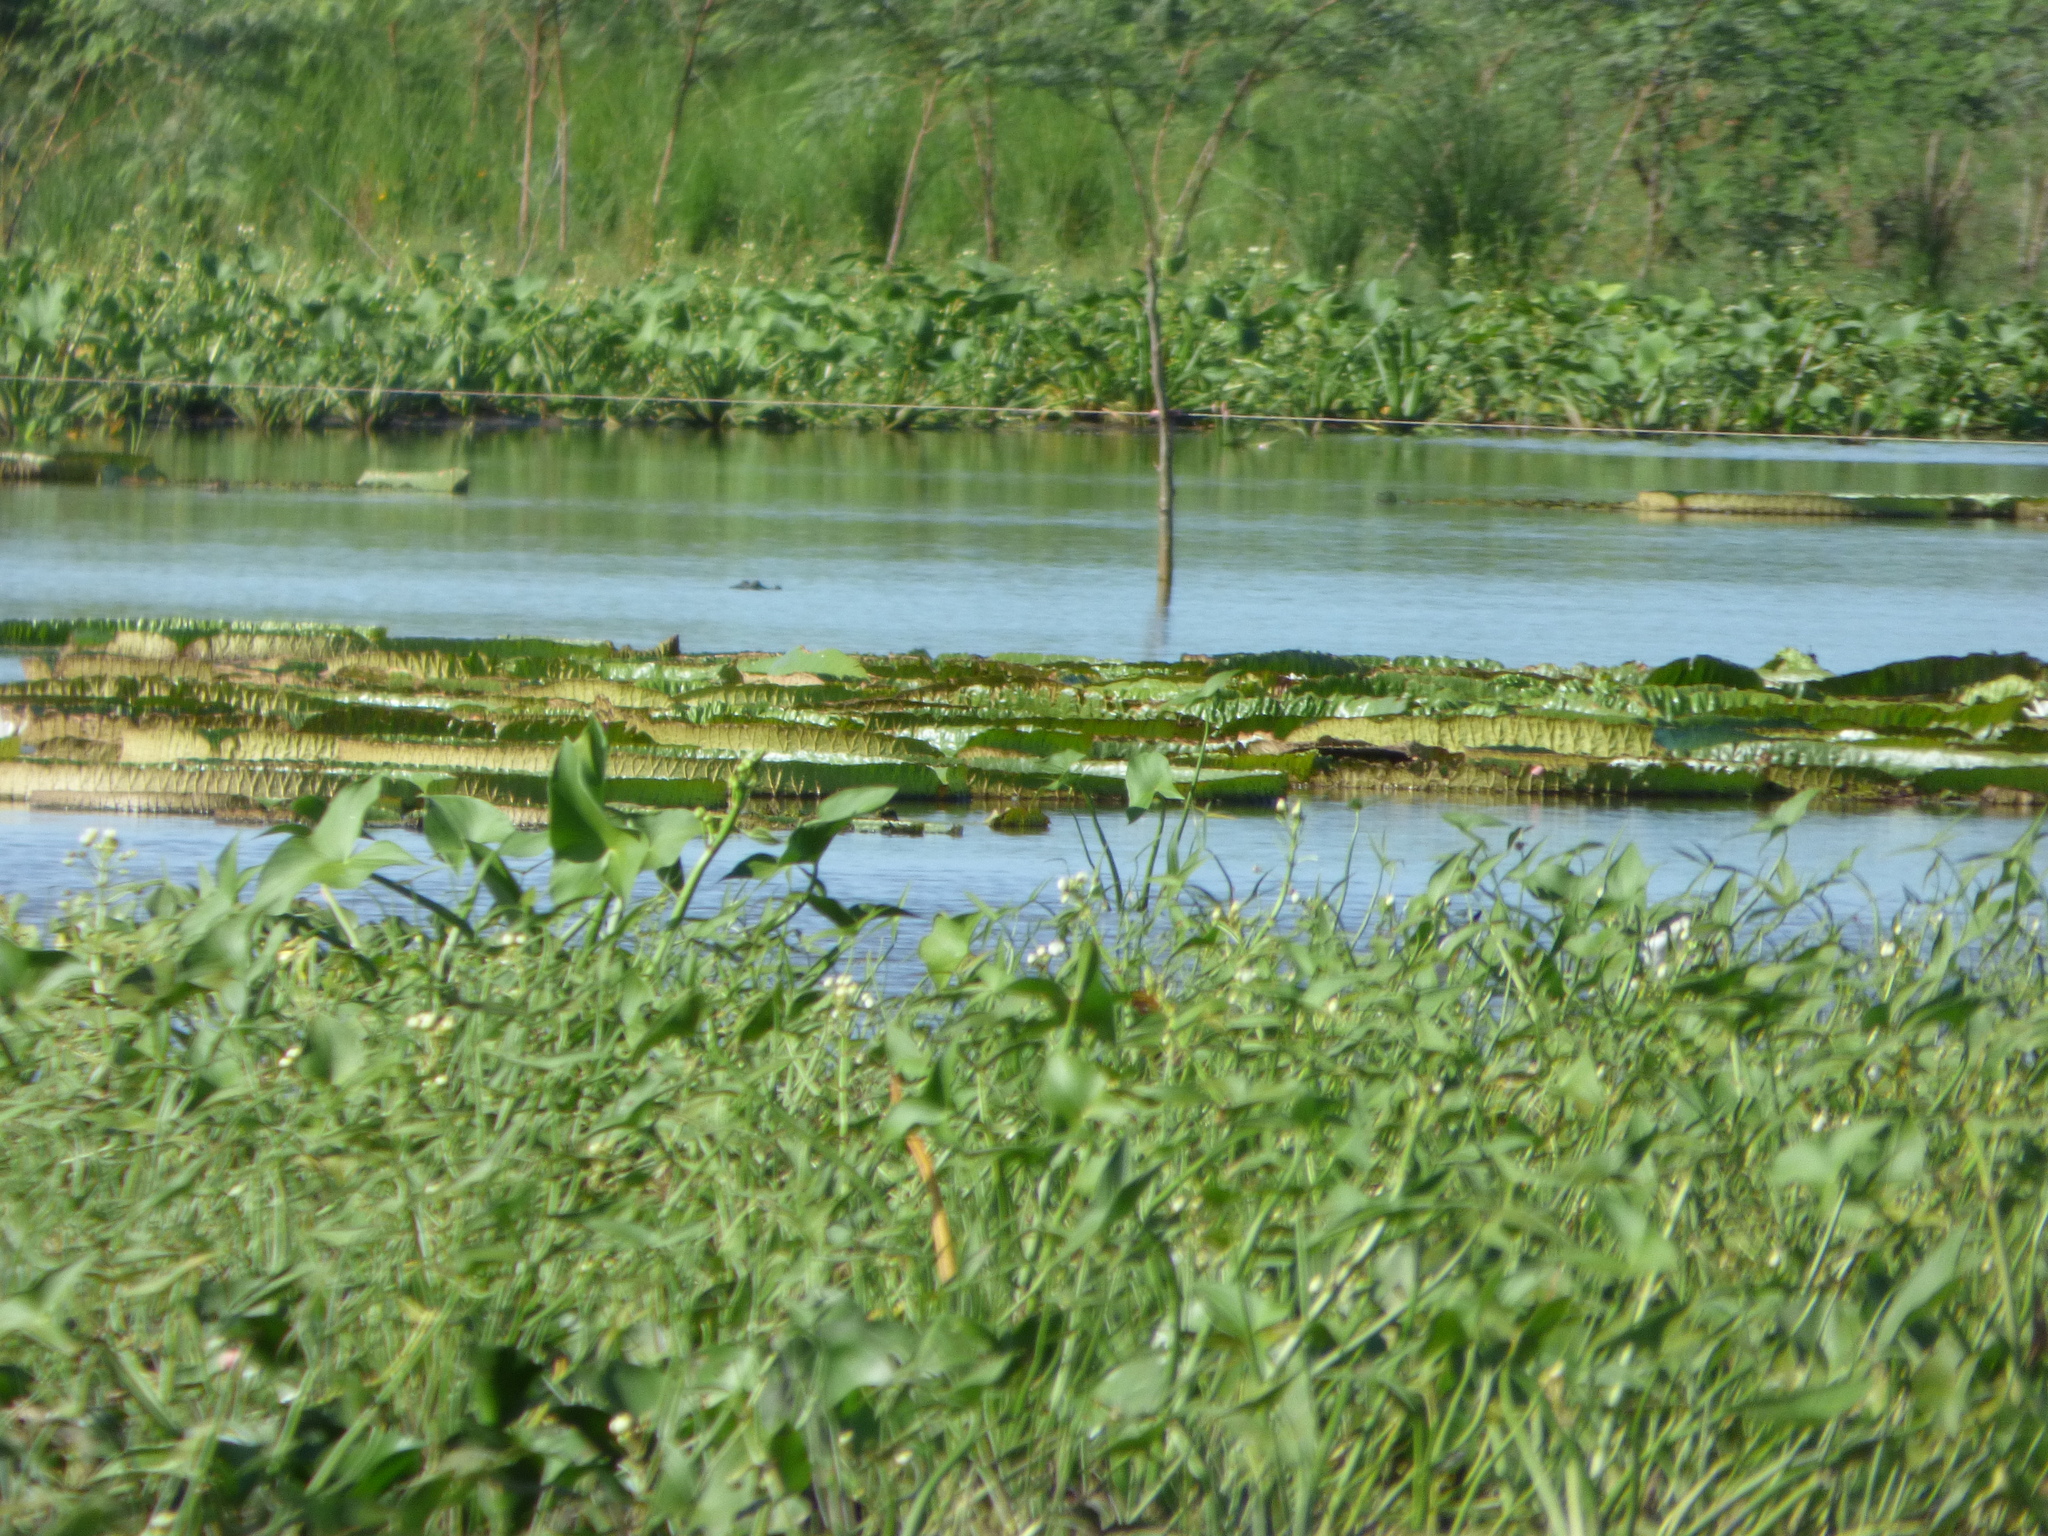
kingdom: Plantae
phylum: Tracheophyta
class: Magnoliopsida
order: Nymphaeales
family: Nymphaeaceae
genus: Victoria
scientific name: Victoria cruziana
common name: Santa cruz water-lily
